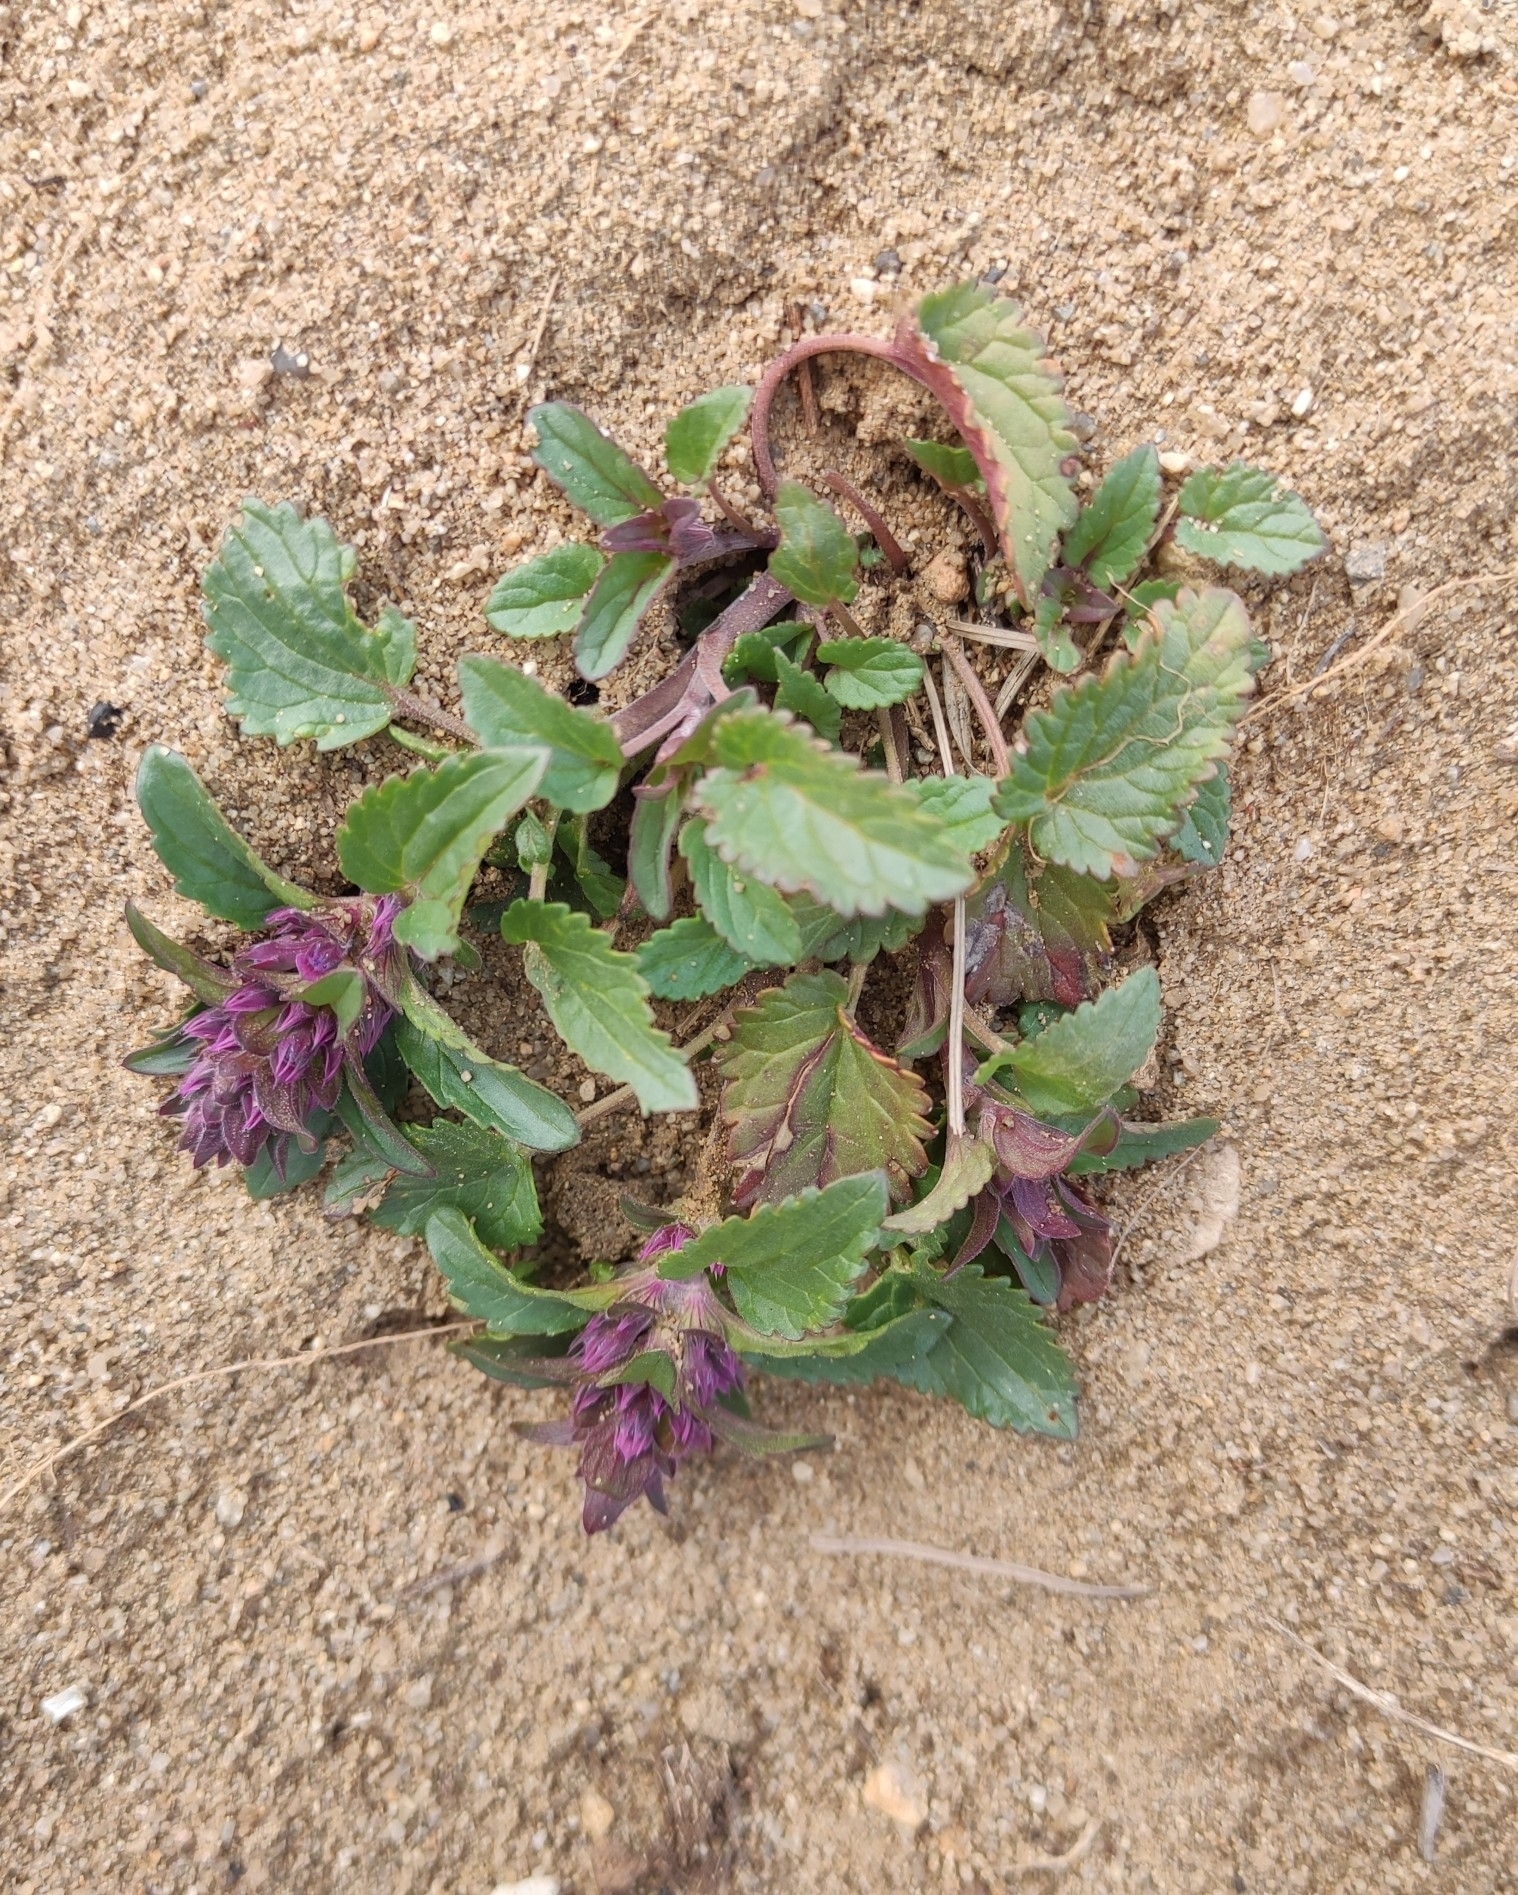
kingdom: Plantae
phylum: Tracheophyta
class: Magnoliopsida
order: Lamiales
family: Lamiaceae
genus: Dracocephalum
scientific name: Dracocephalum nutans
